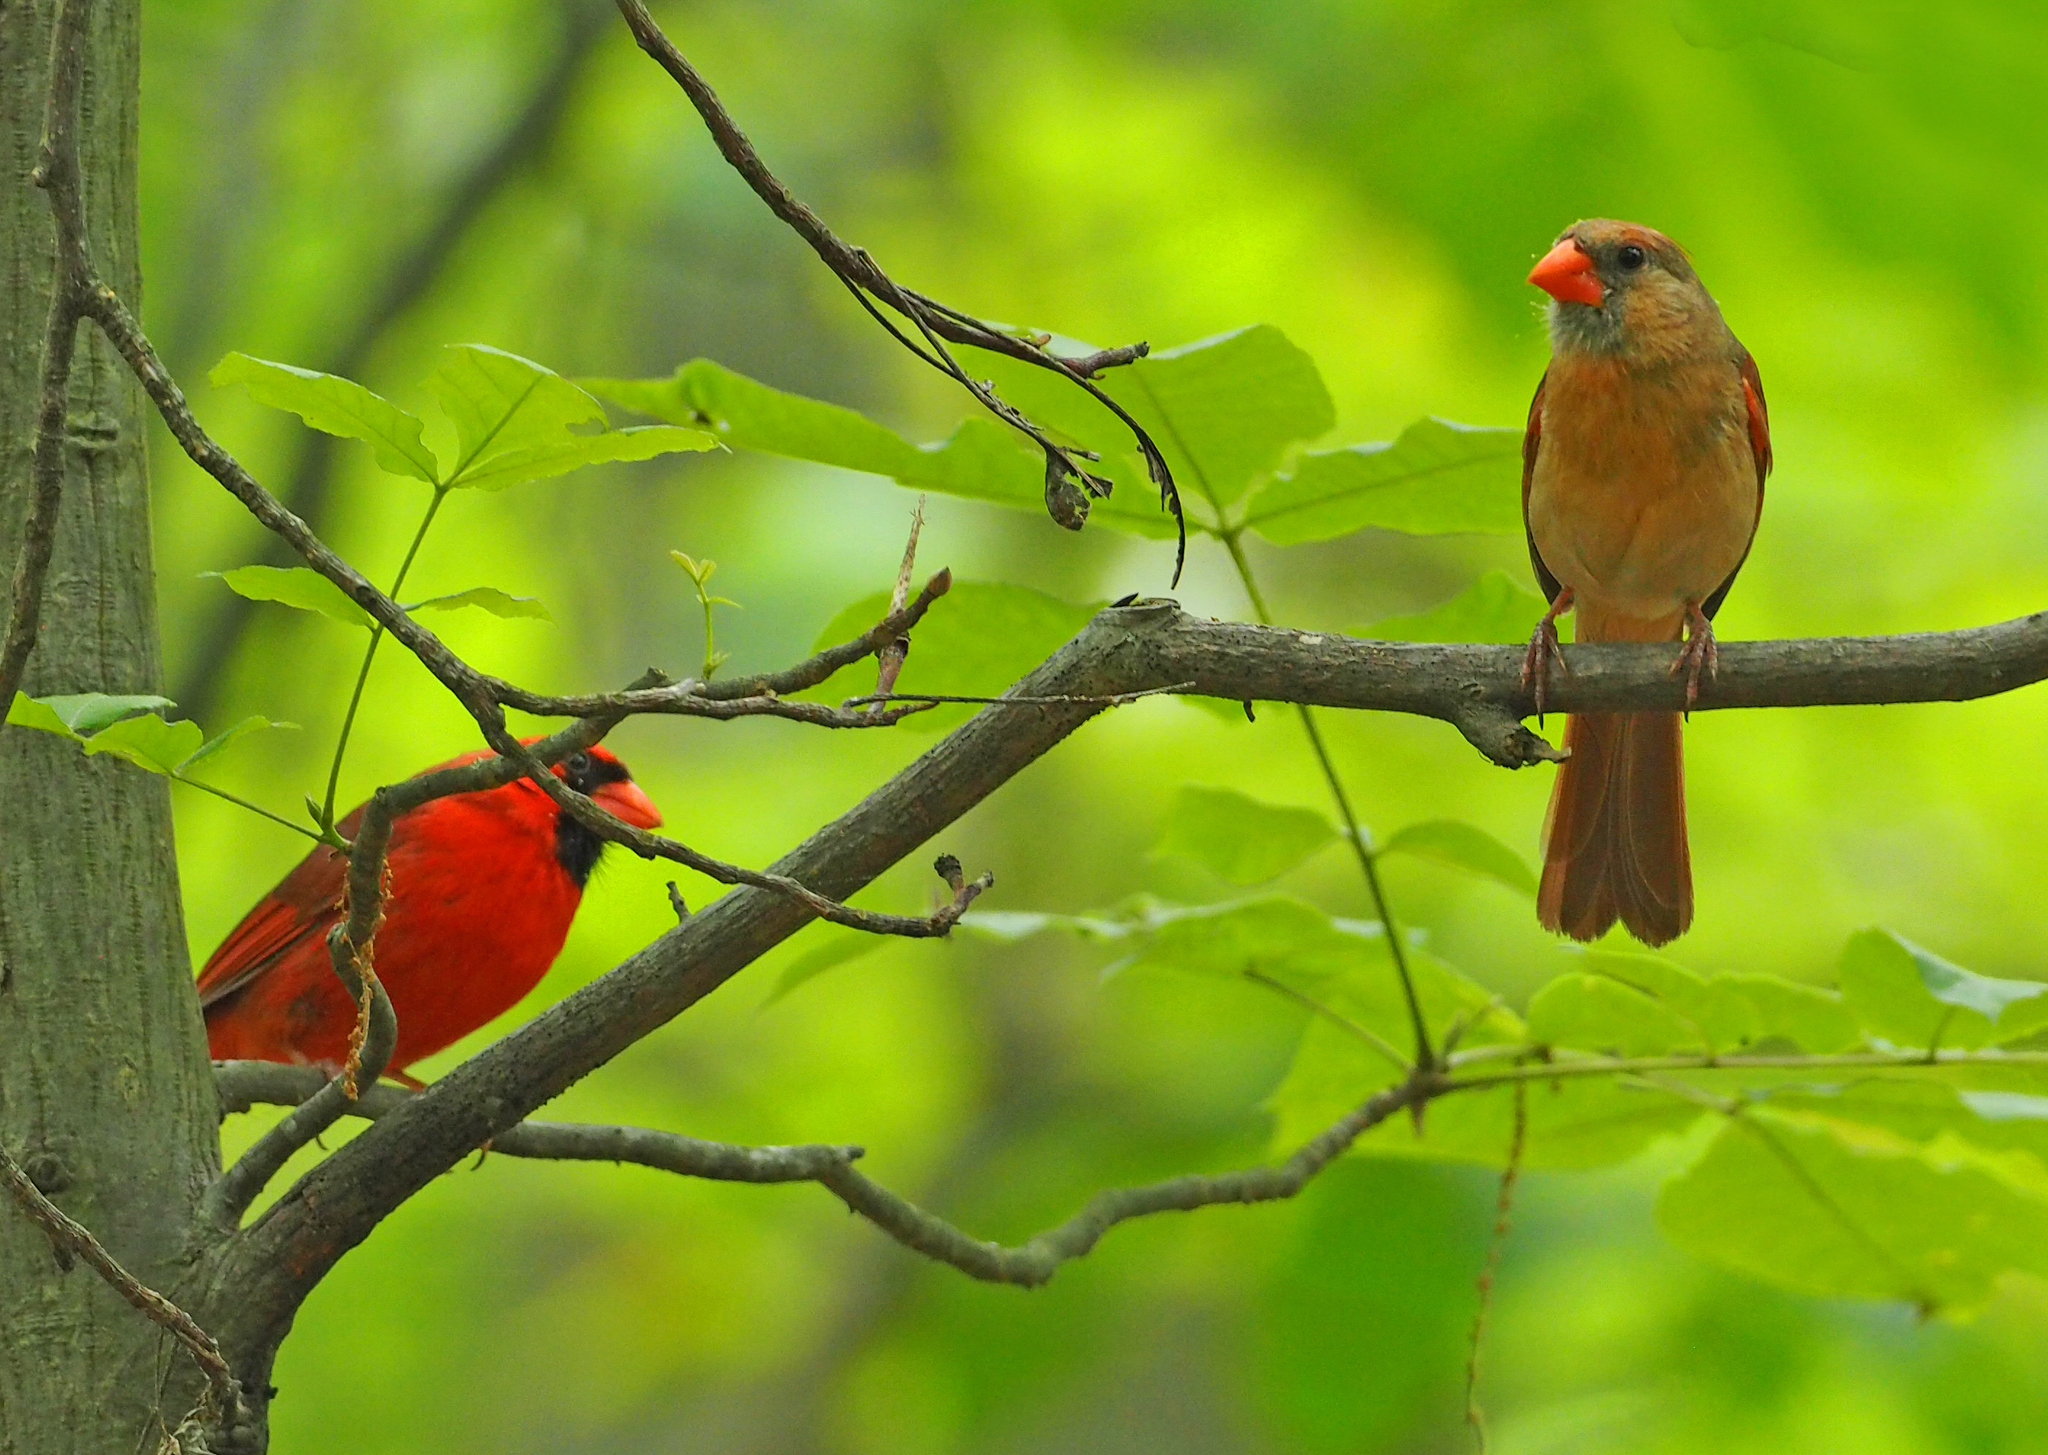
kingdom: Animalia
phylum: Chordata
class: Aves
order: Passeriformes
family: Cardinalidae
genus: Cardinalis
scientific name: Cardinalis cardinalis
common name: Northern cardinal
